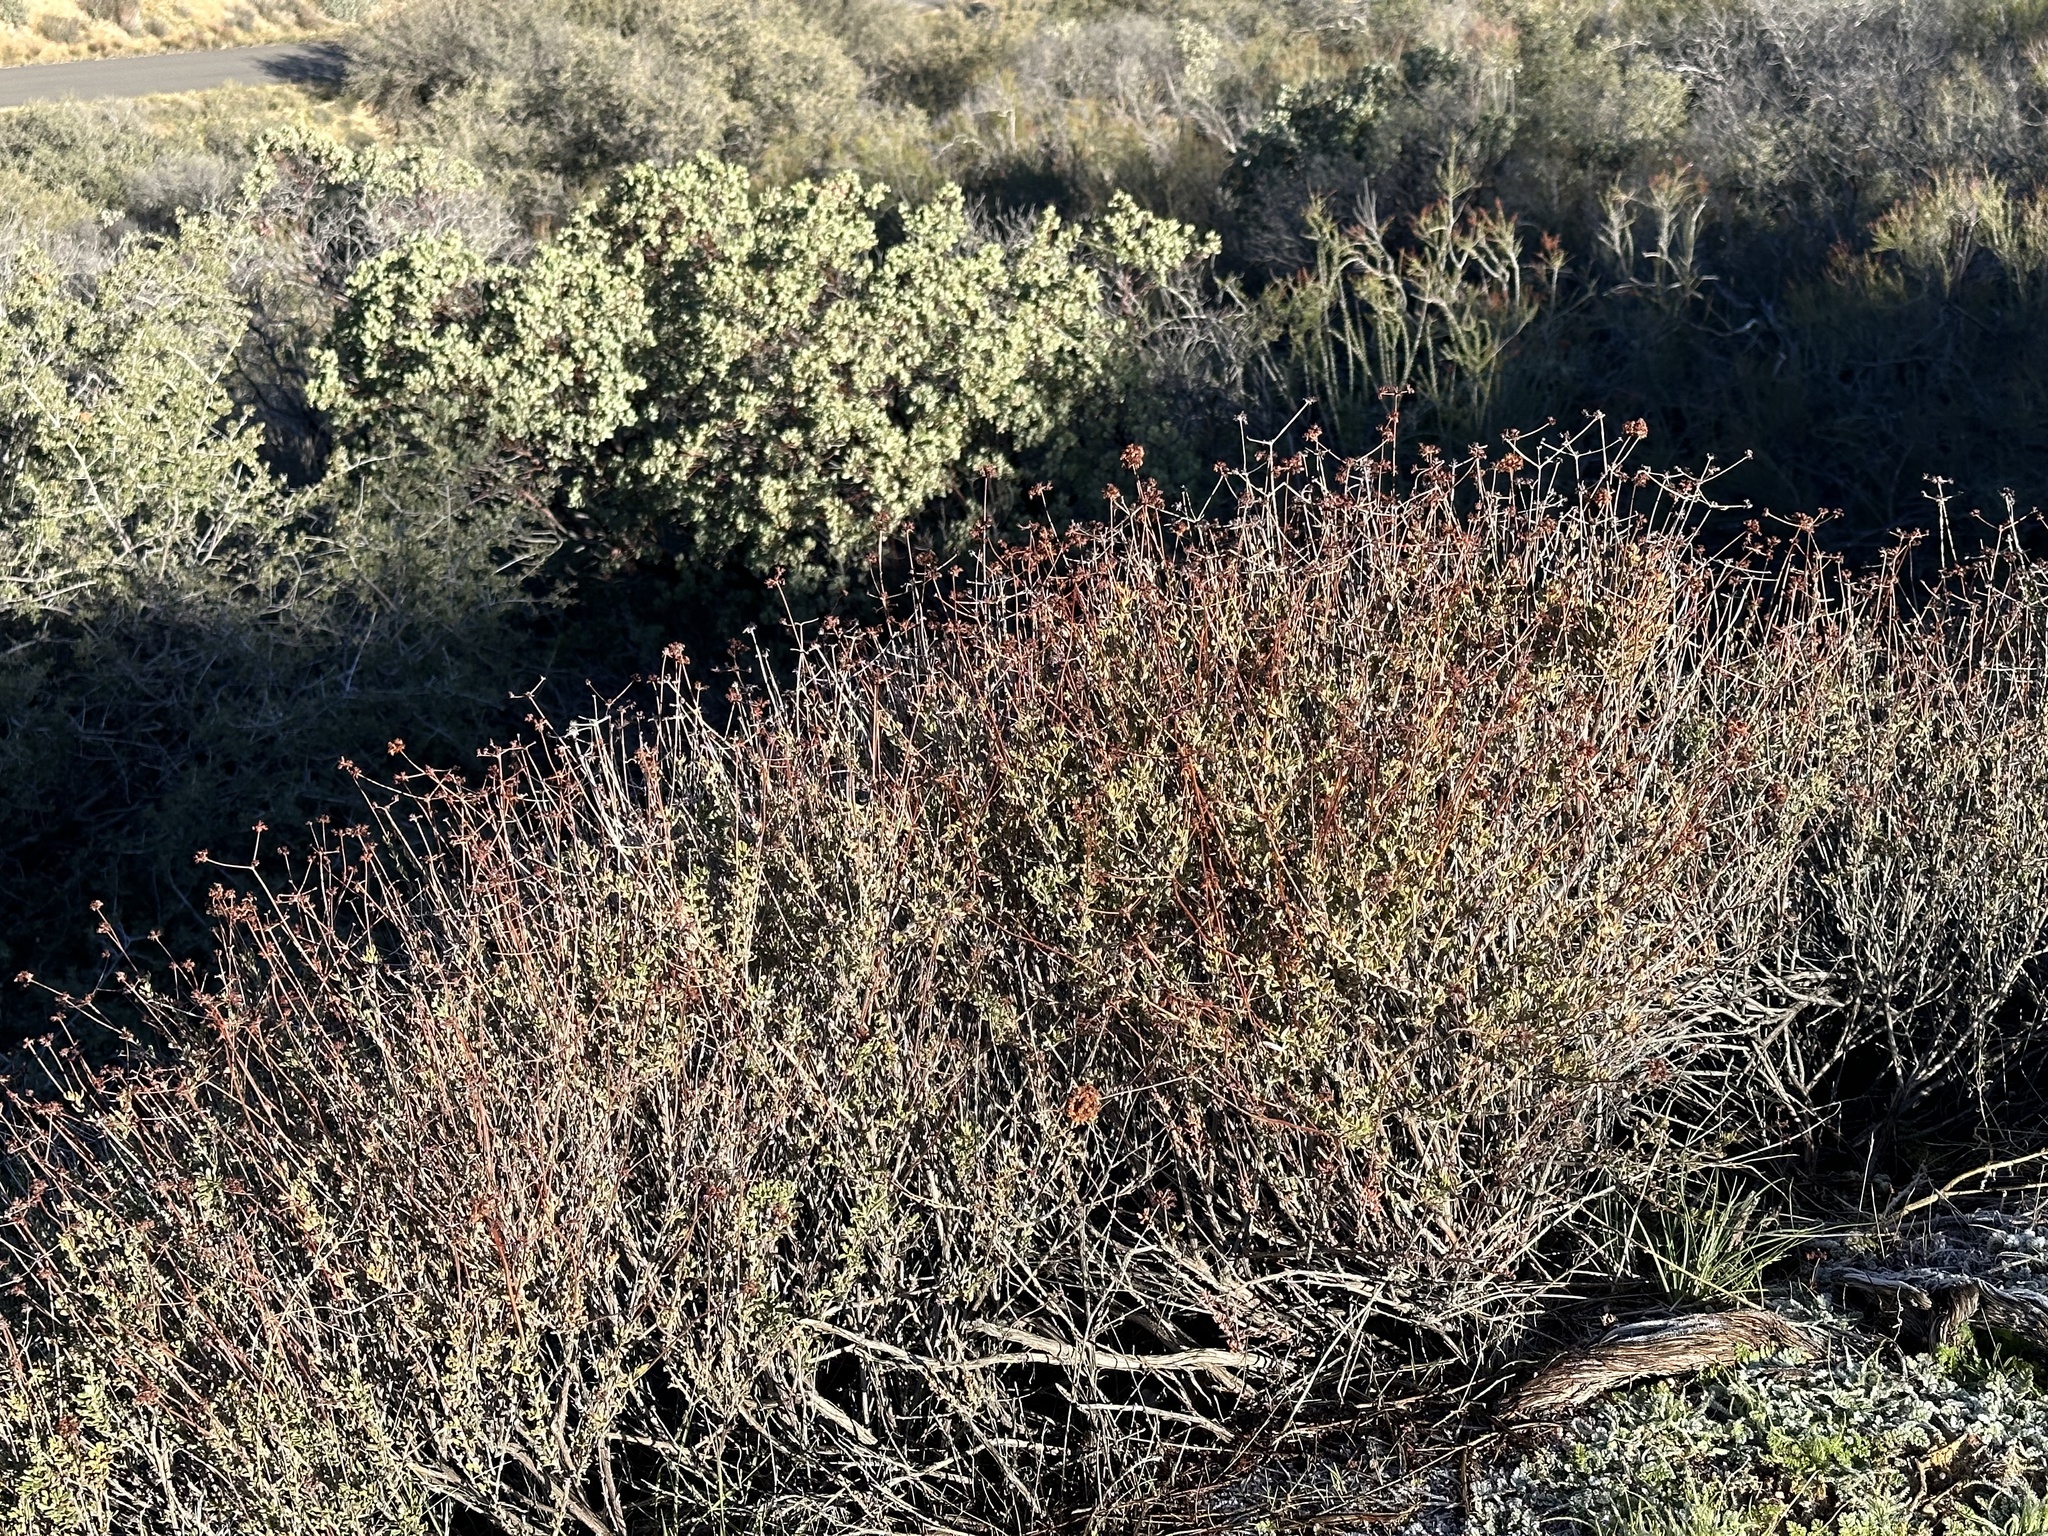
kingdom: Plantae
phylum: Tracheophyta
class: Magnoliopsida
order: Caryophyllales
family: Polygonaceae
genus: Eriogonum
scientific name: Eriogonum fasciculatum
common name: California wild buckwheat
